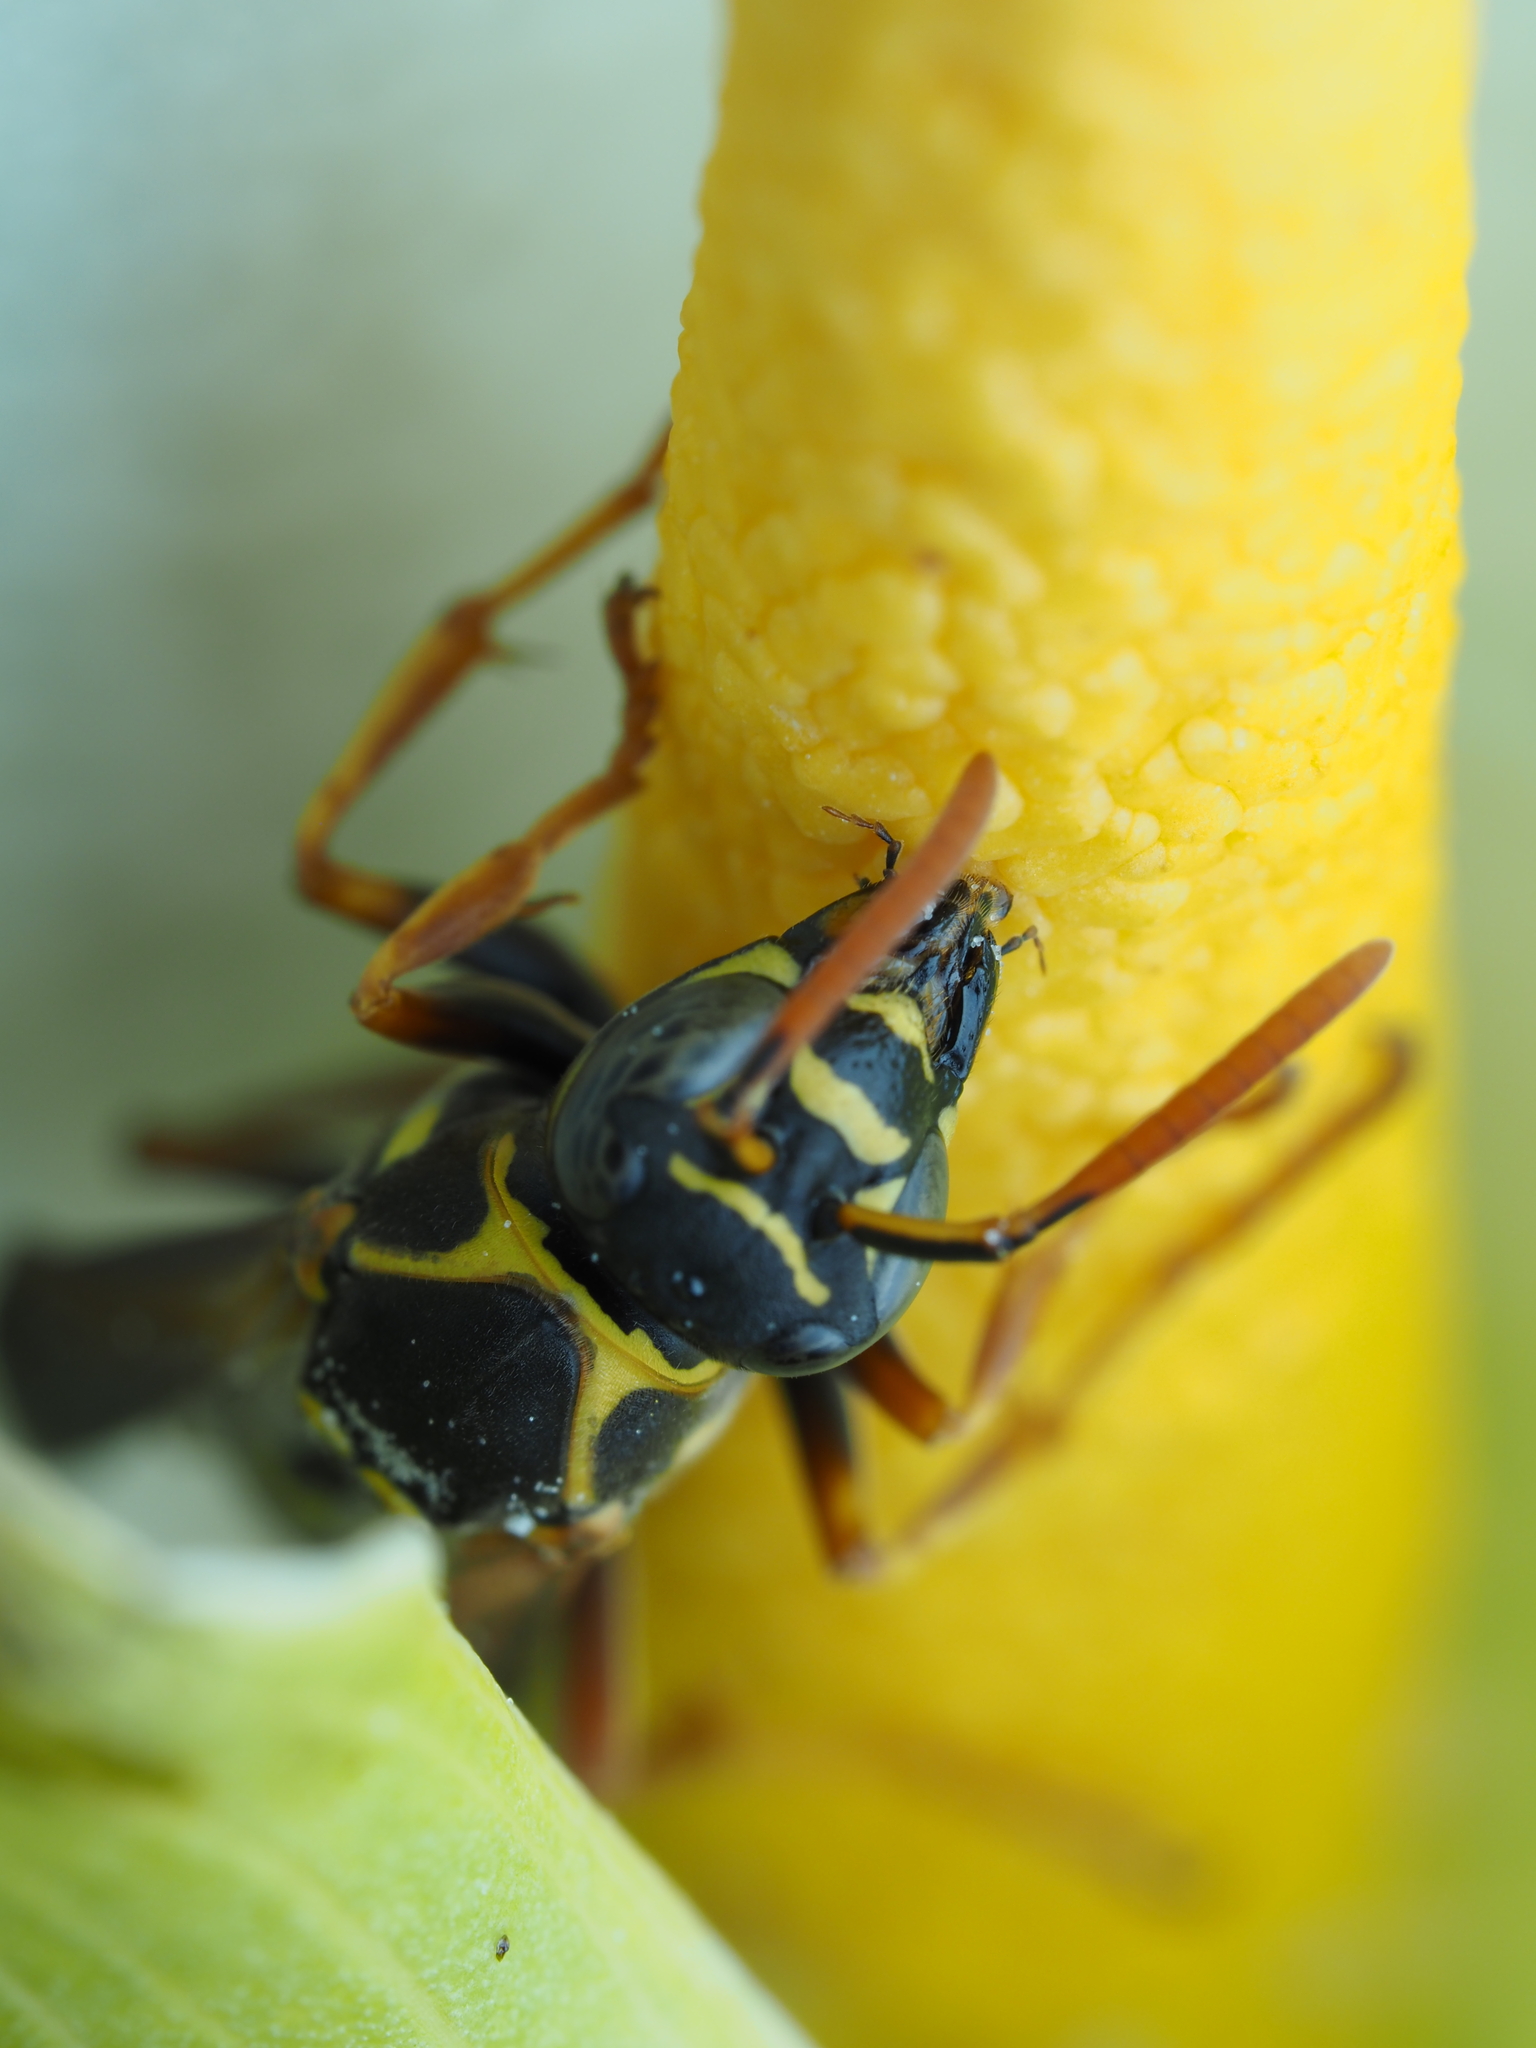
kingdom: Animalia
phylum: Arthropoda
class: Insecta
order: Hymenoptera
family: Eumenidae
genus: Polistes
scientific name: Polistes chinensis
